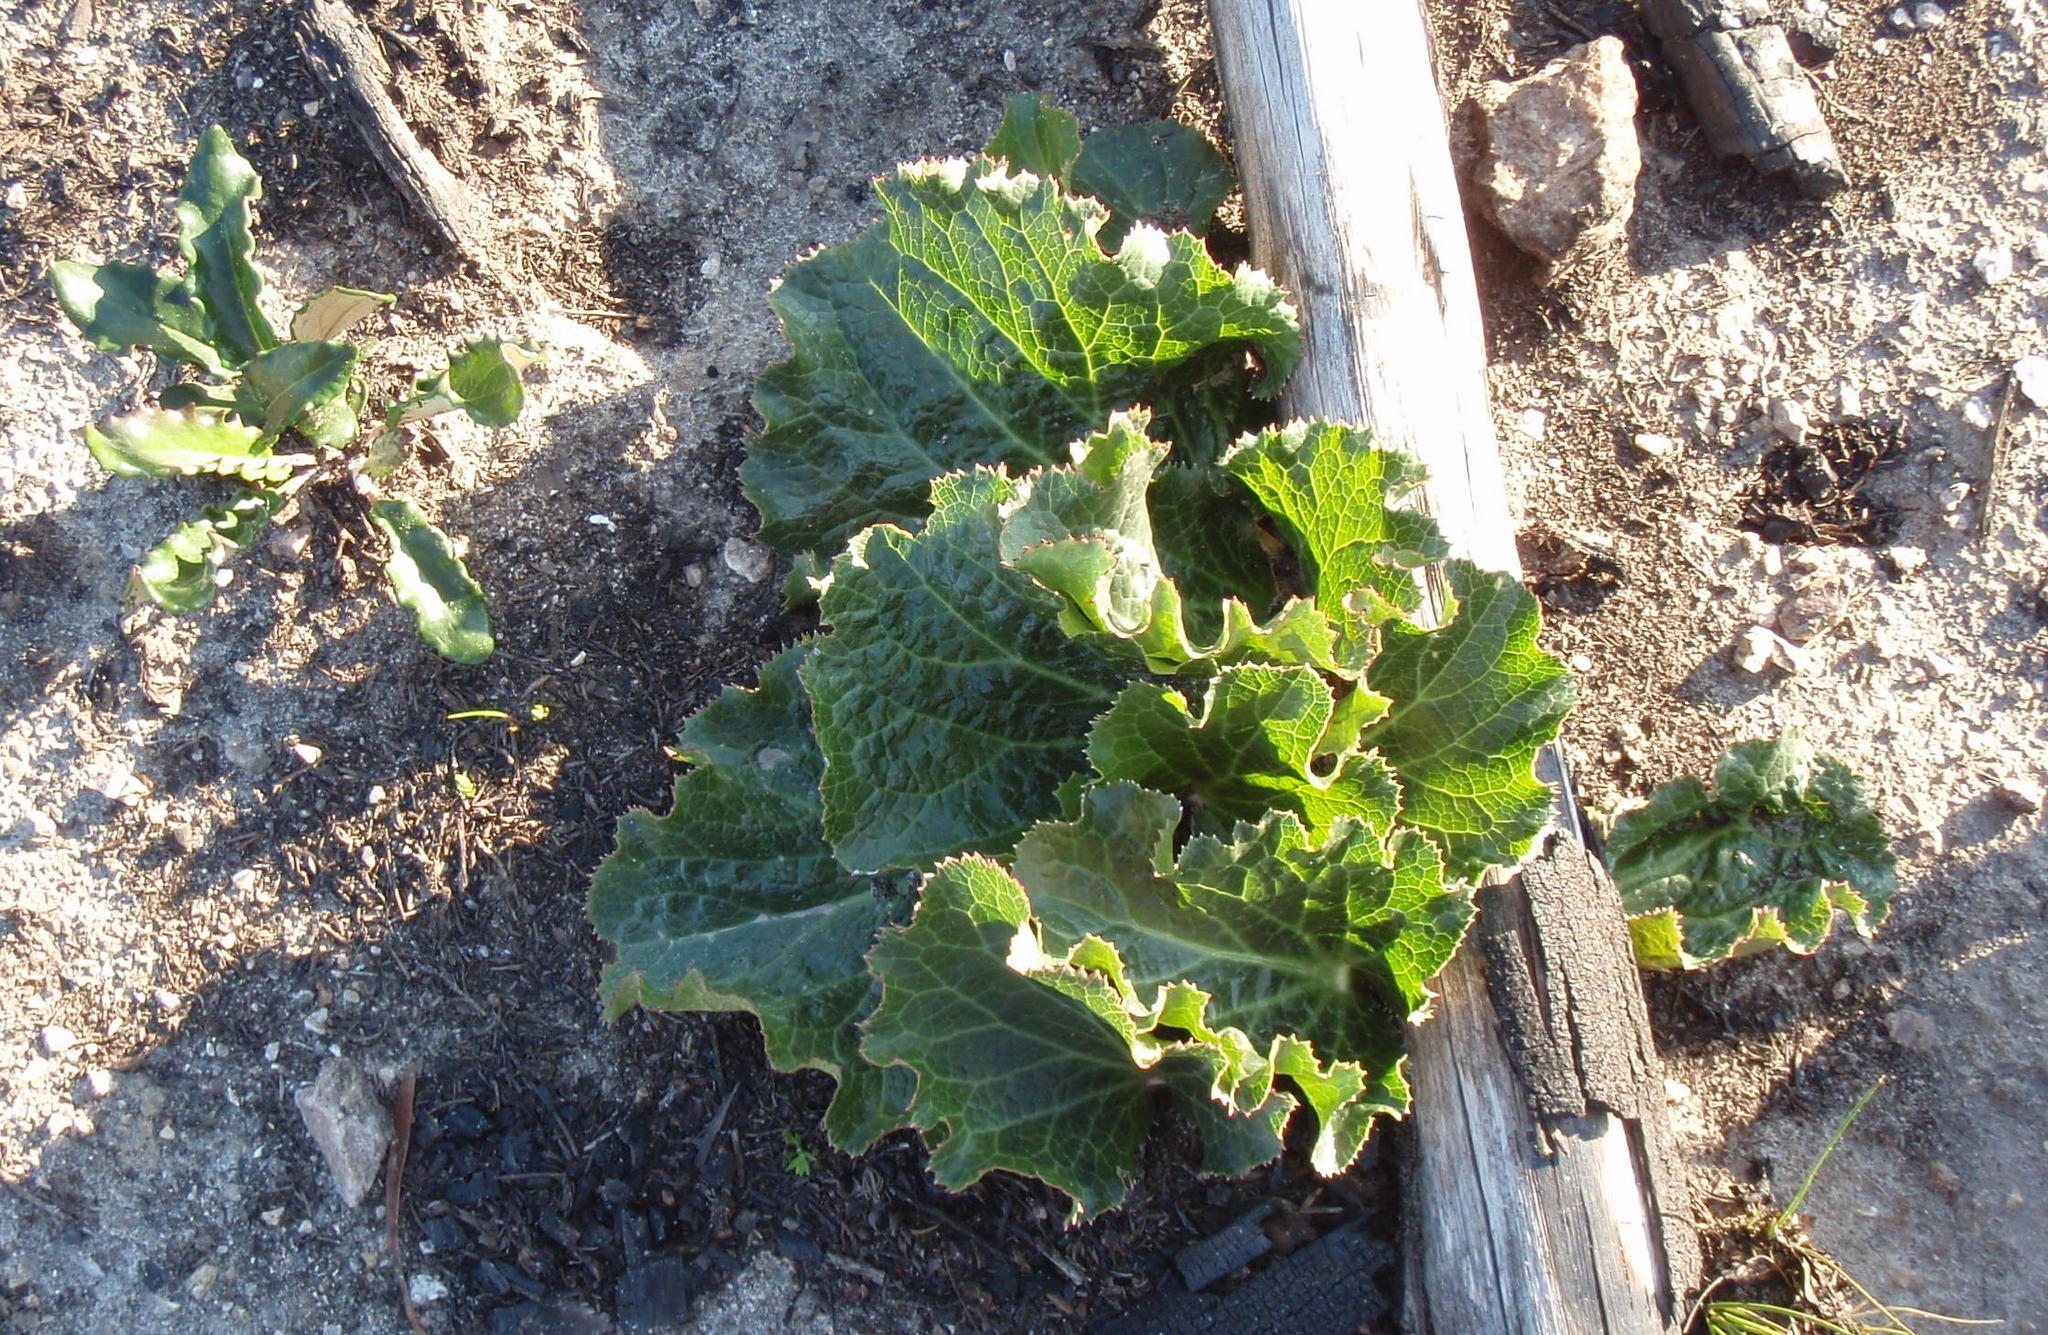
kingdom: Plantae
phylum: Tracheophyta
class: Magnoliopsida
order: Apiales
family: Apiaceae
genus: Lichtensteinia
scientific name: Lichtensteinia latifolia
